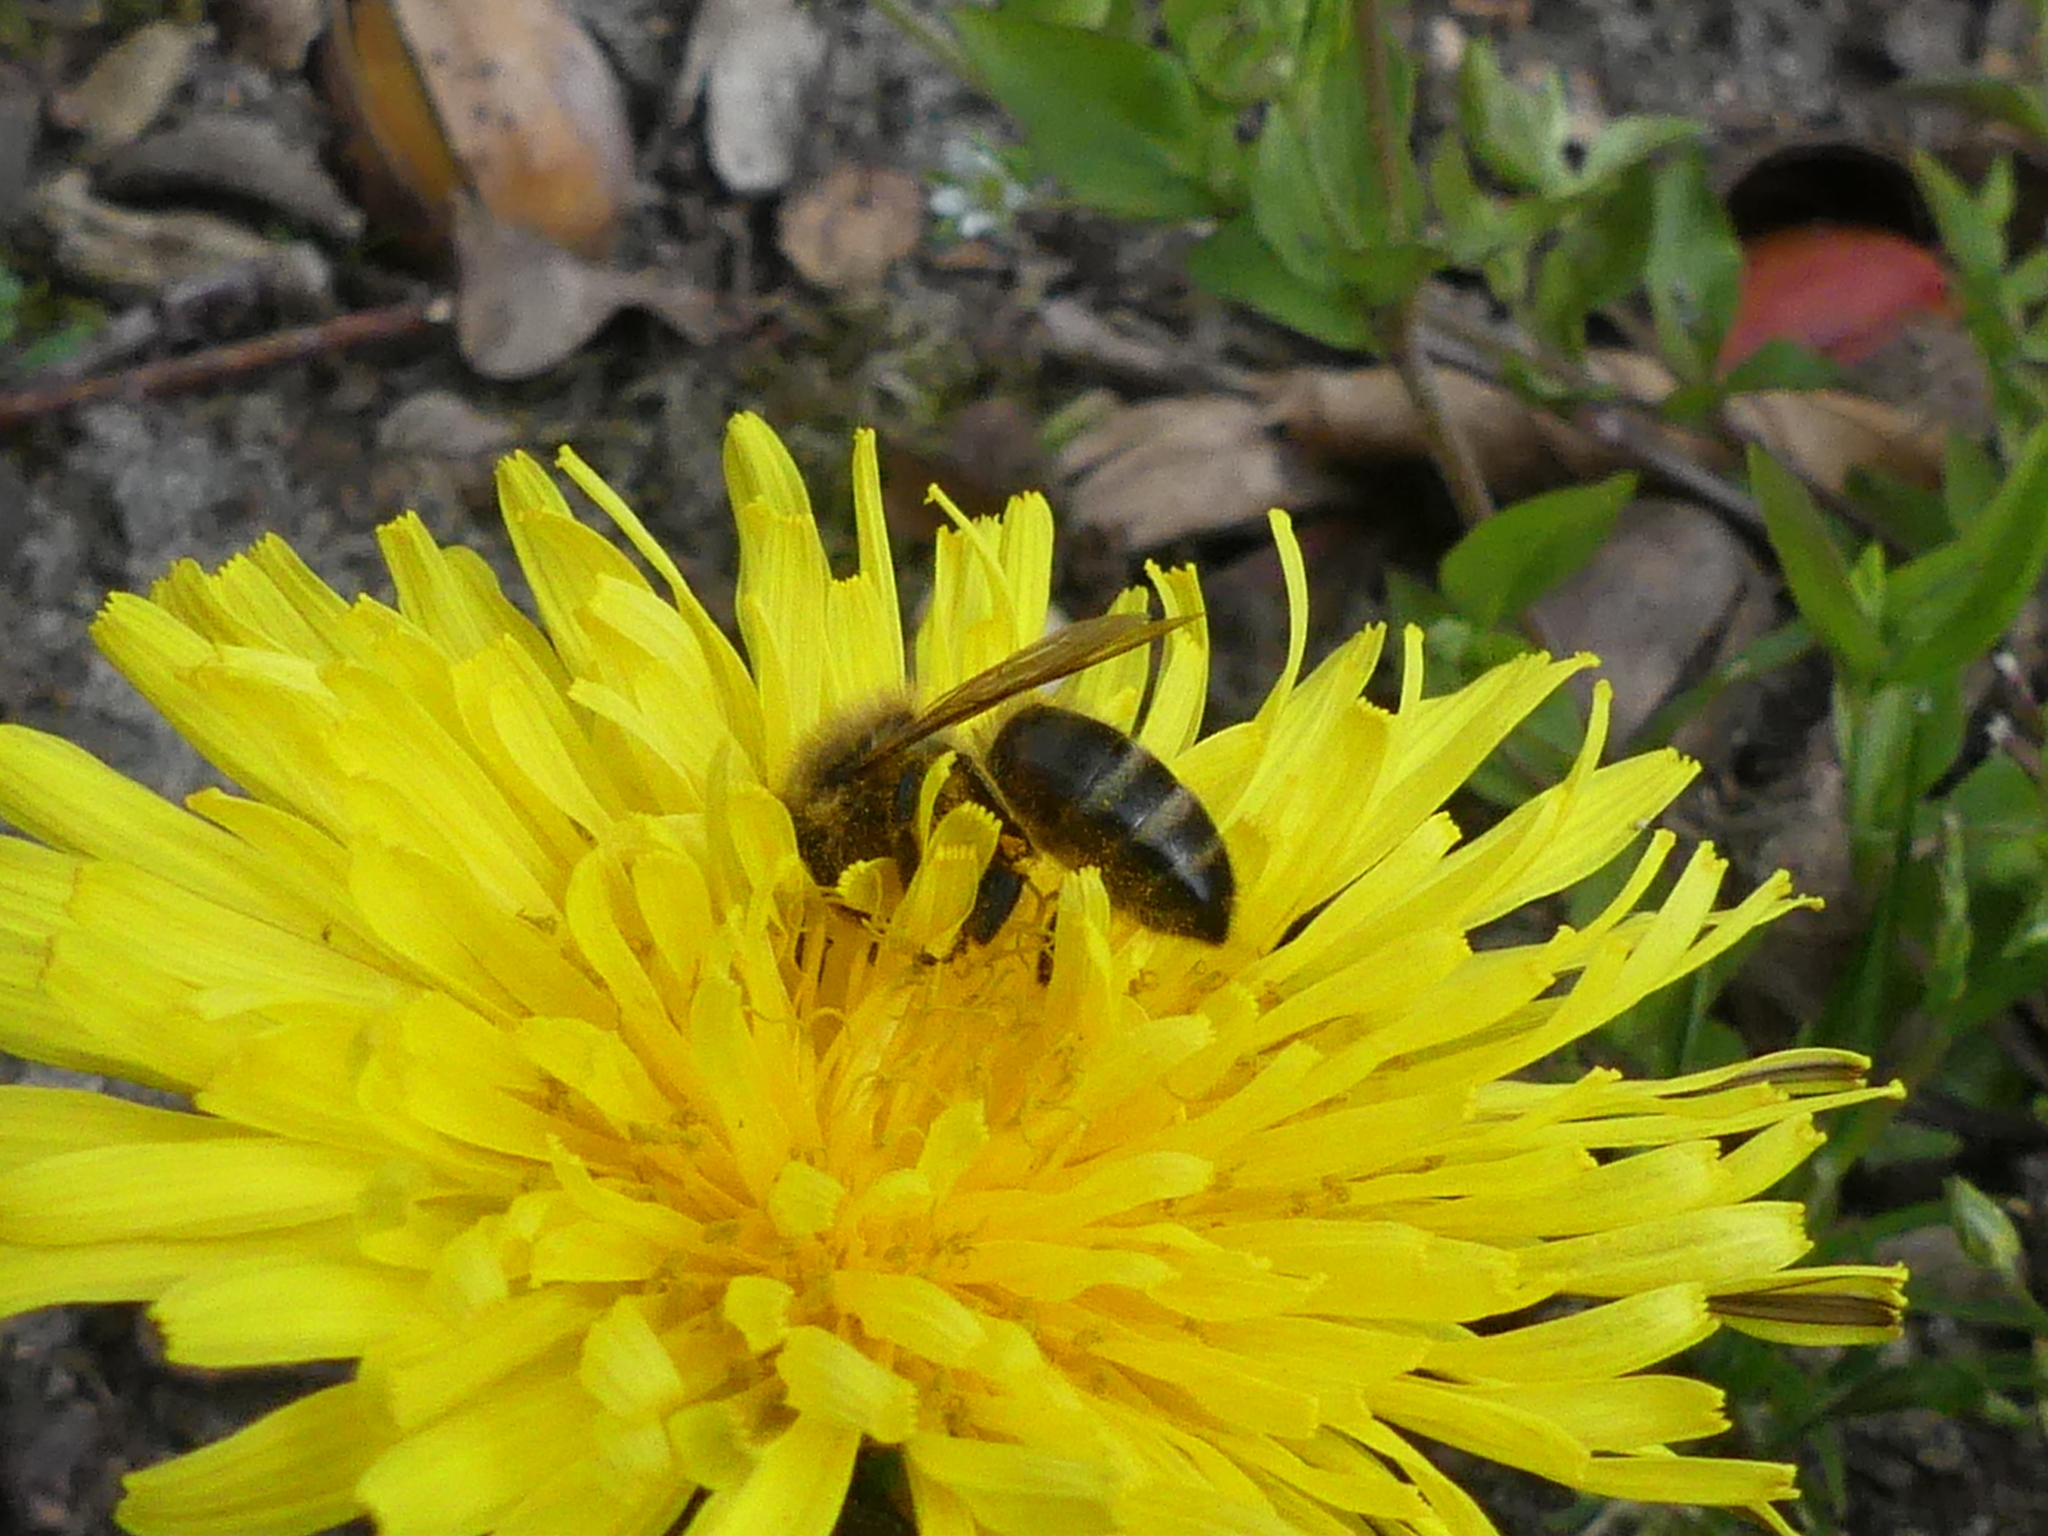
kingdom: Animalia
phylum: Arthropoda
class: Insecta
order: Hymenoptera
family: Apidae
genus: Apis
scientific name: Apis mellifera
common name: Honey bee
